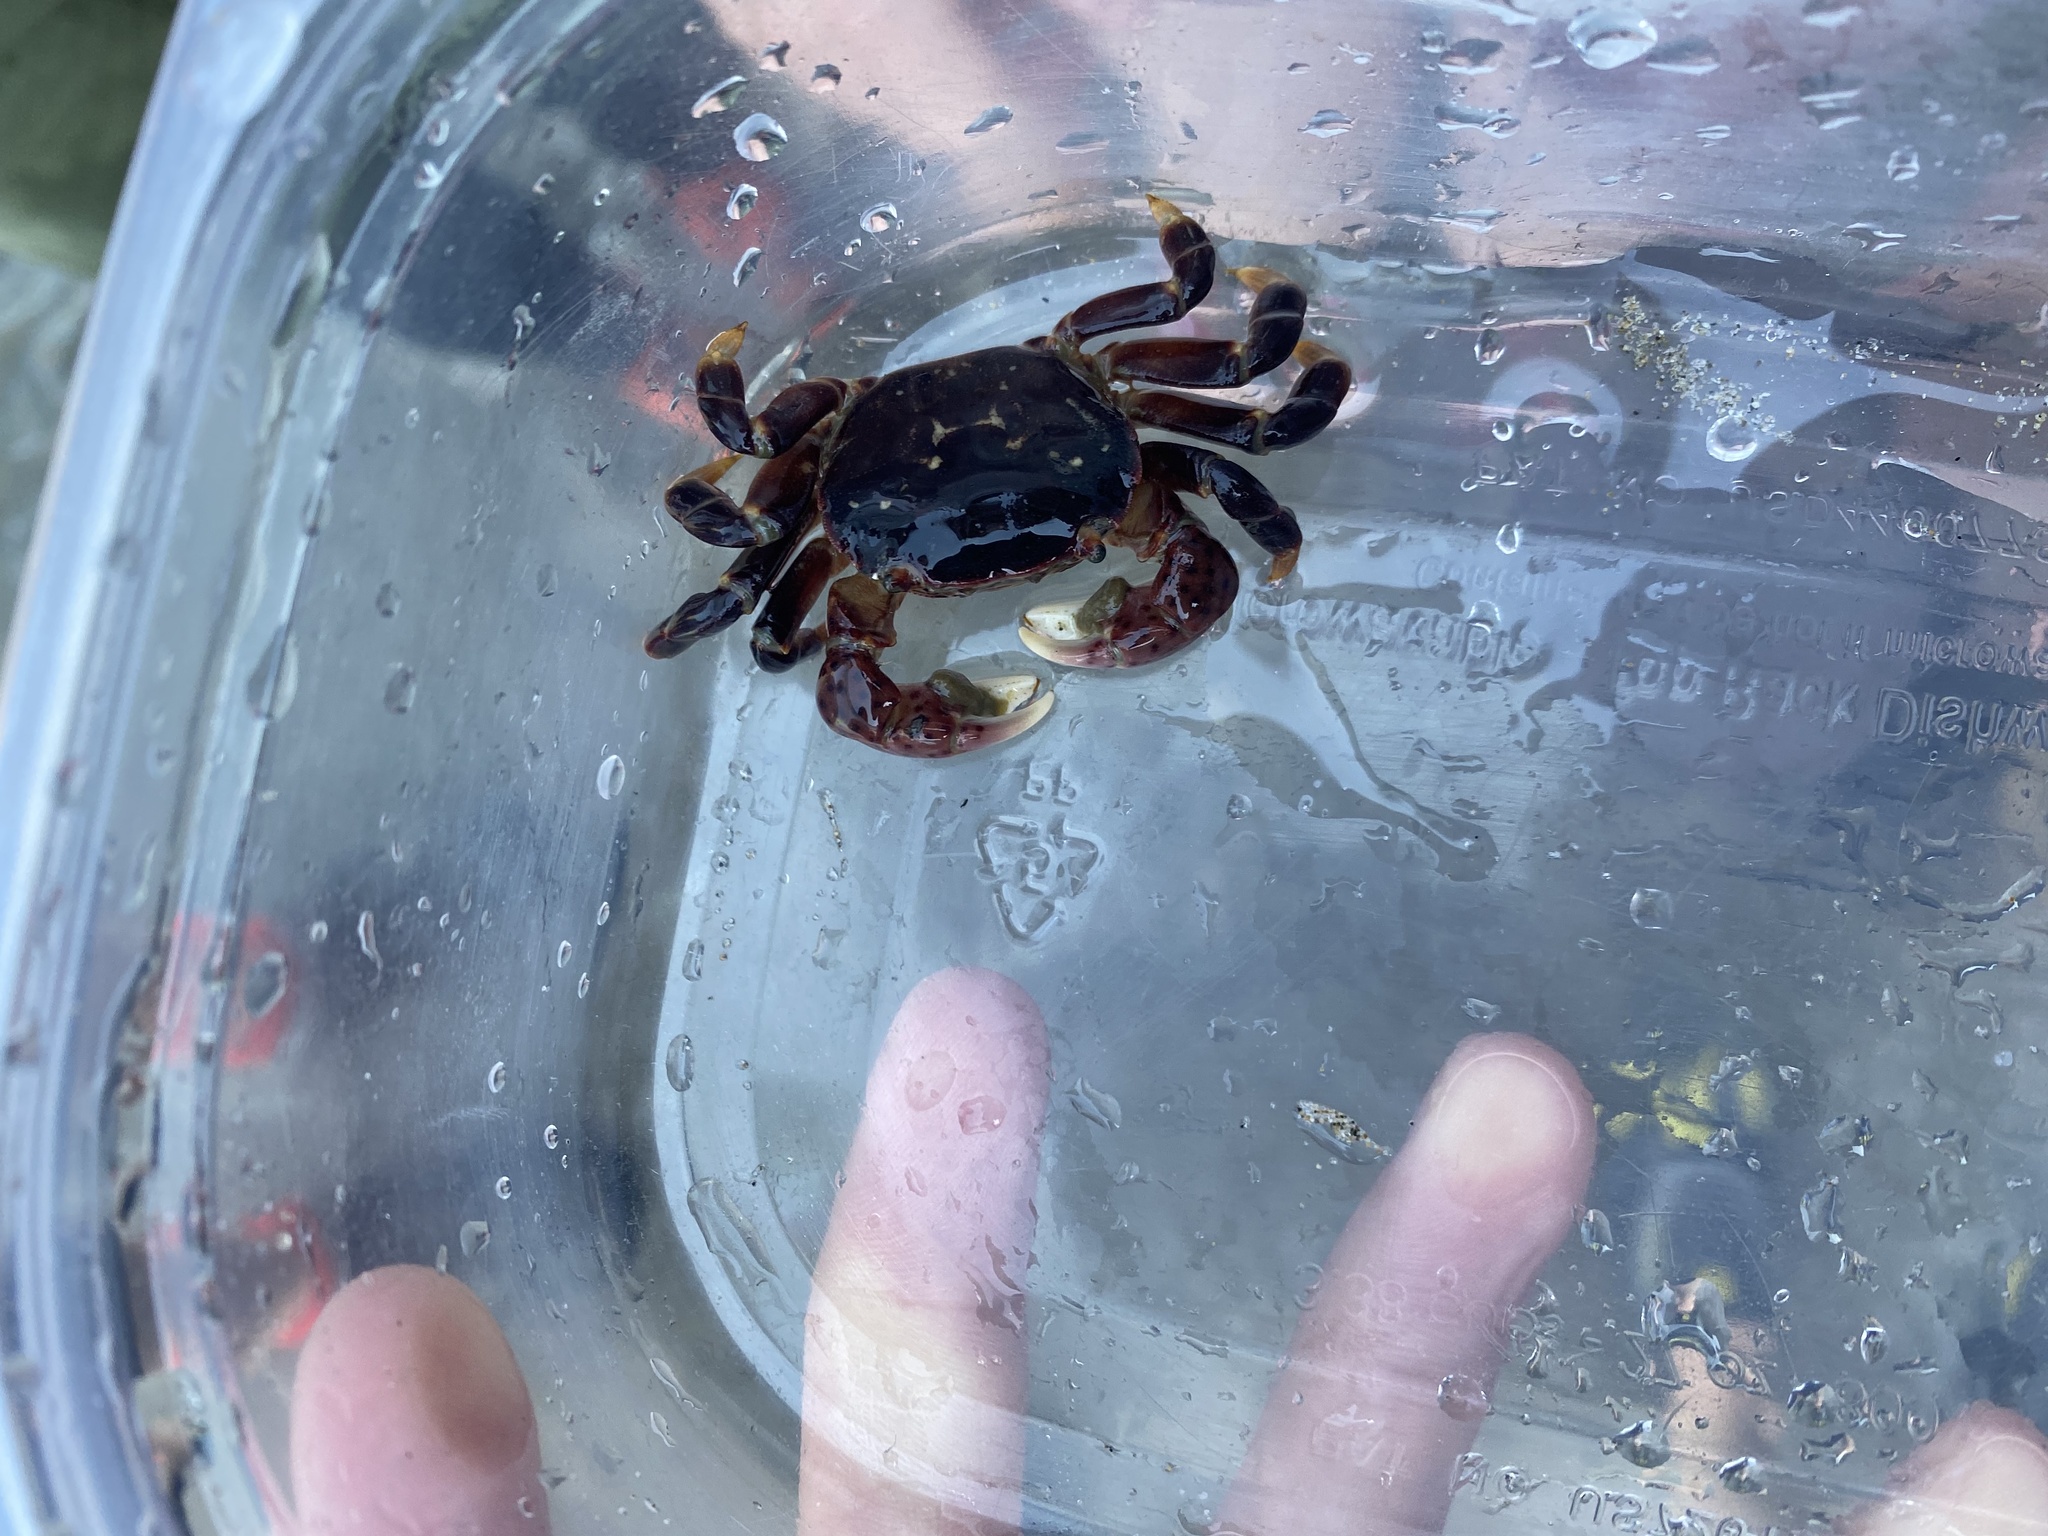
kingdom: Animalia
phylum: Arthropoda
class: Malacostraca
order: Decapoda
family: Varunidae
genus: Hemigrapsus
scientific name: Hemigrapsus nudus
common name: Purple shore crab
